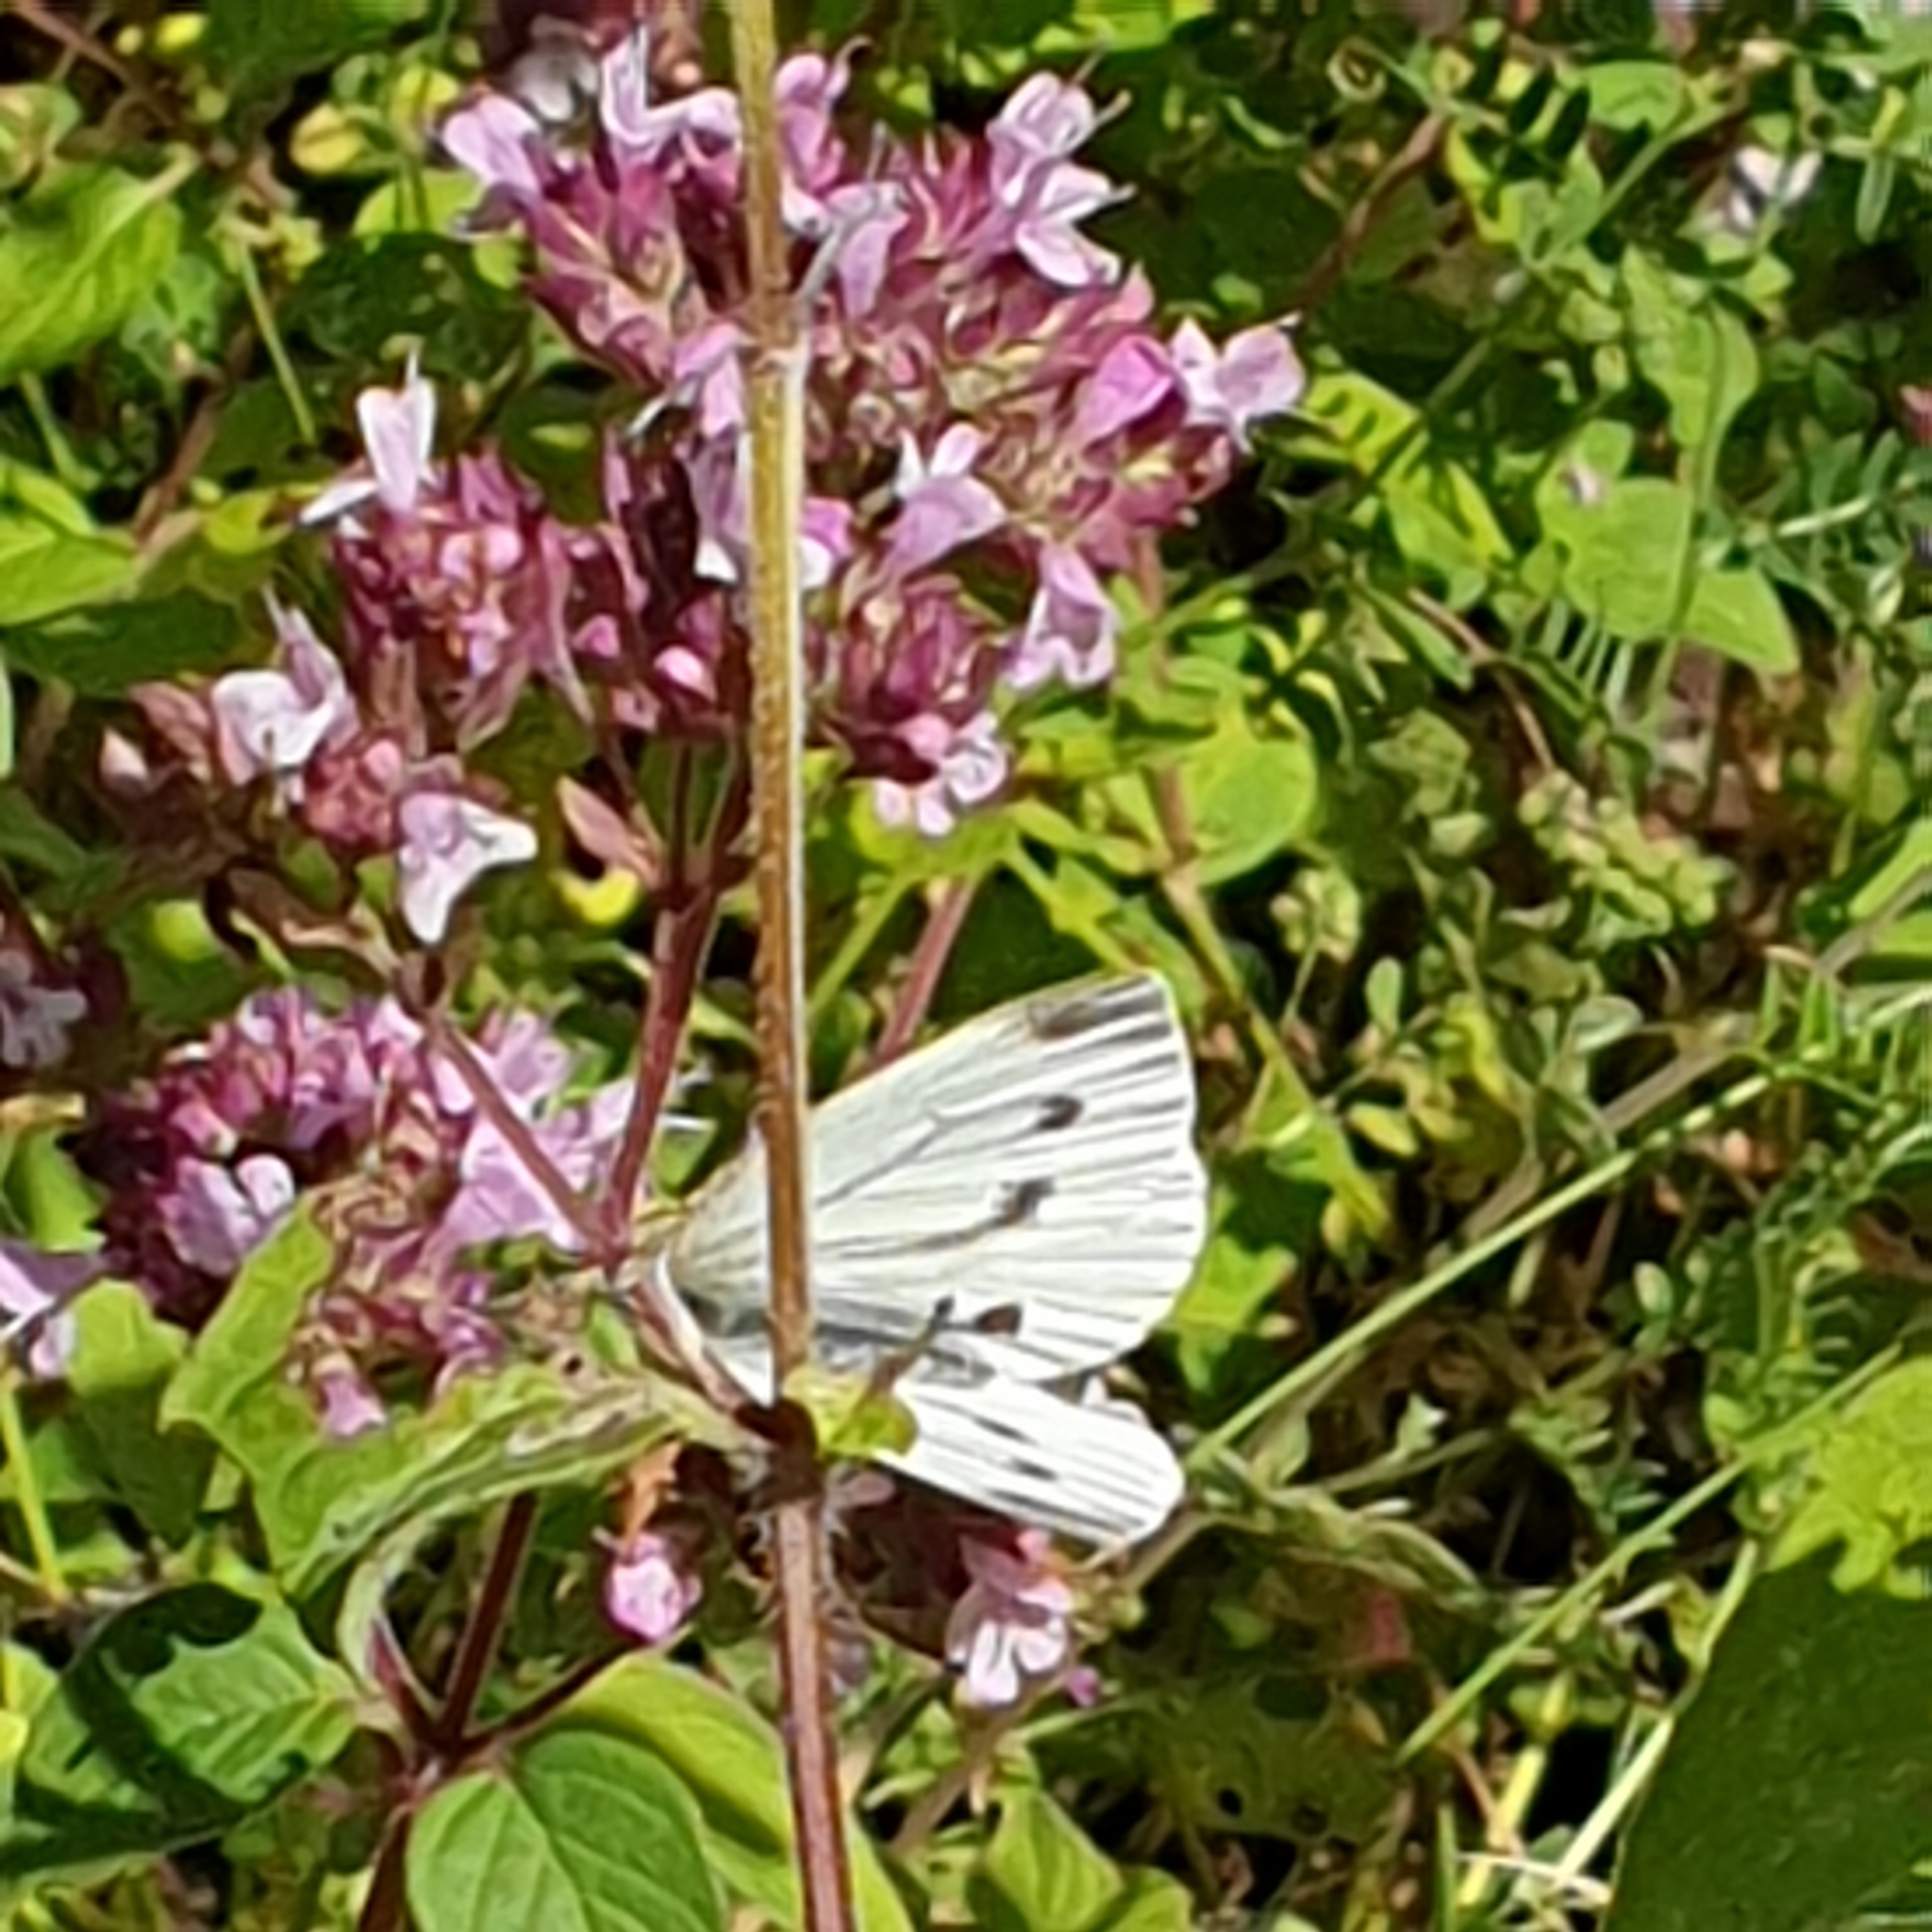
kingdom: Animalia
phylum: Arthropoda
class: Insecta
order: Lepidoptera
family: Pieridae
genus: Pieris
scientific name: Pieris napi
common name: Green-veined white
